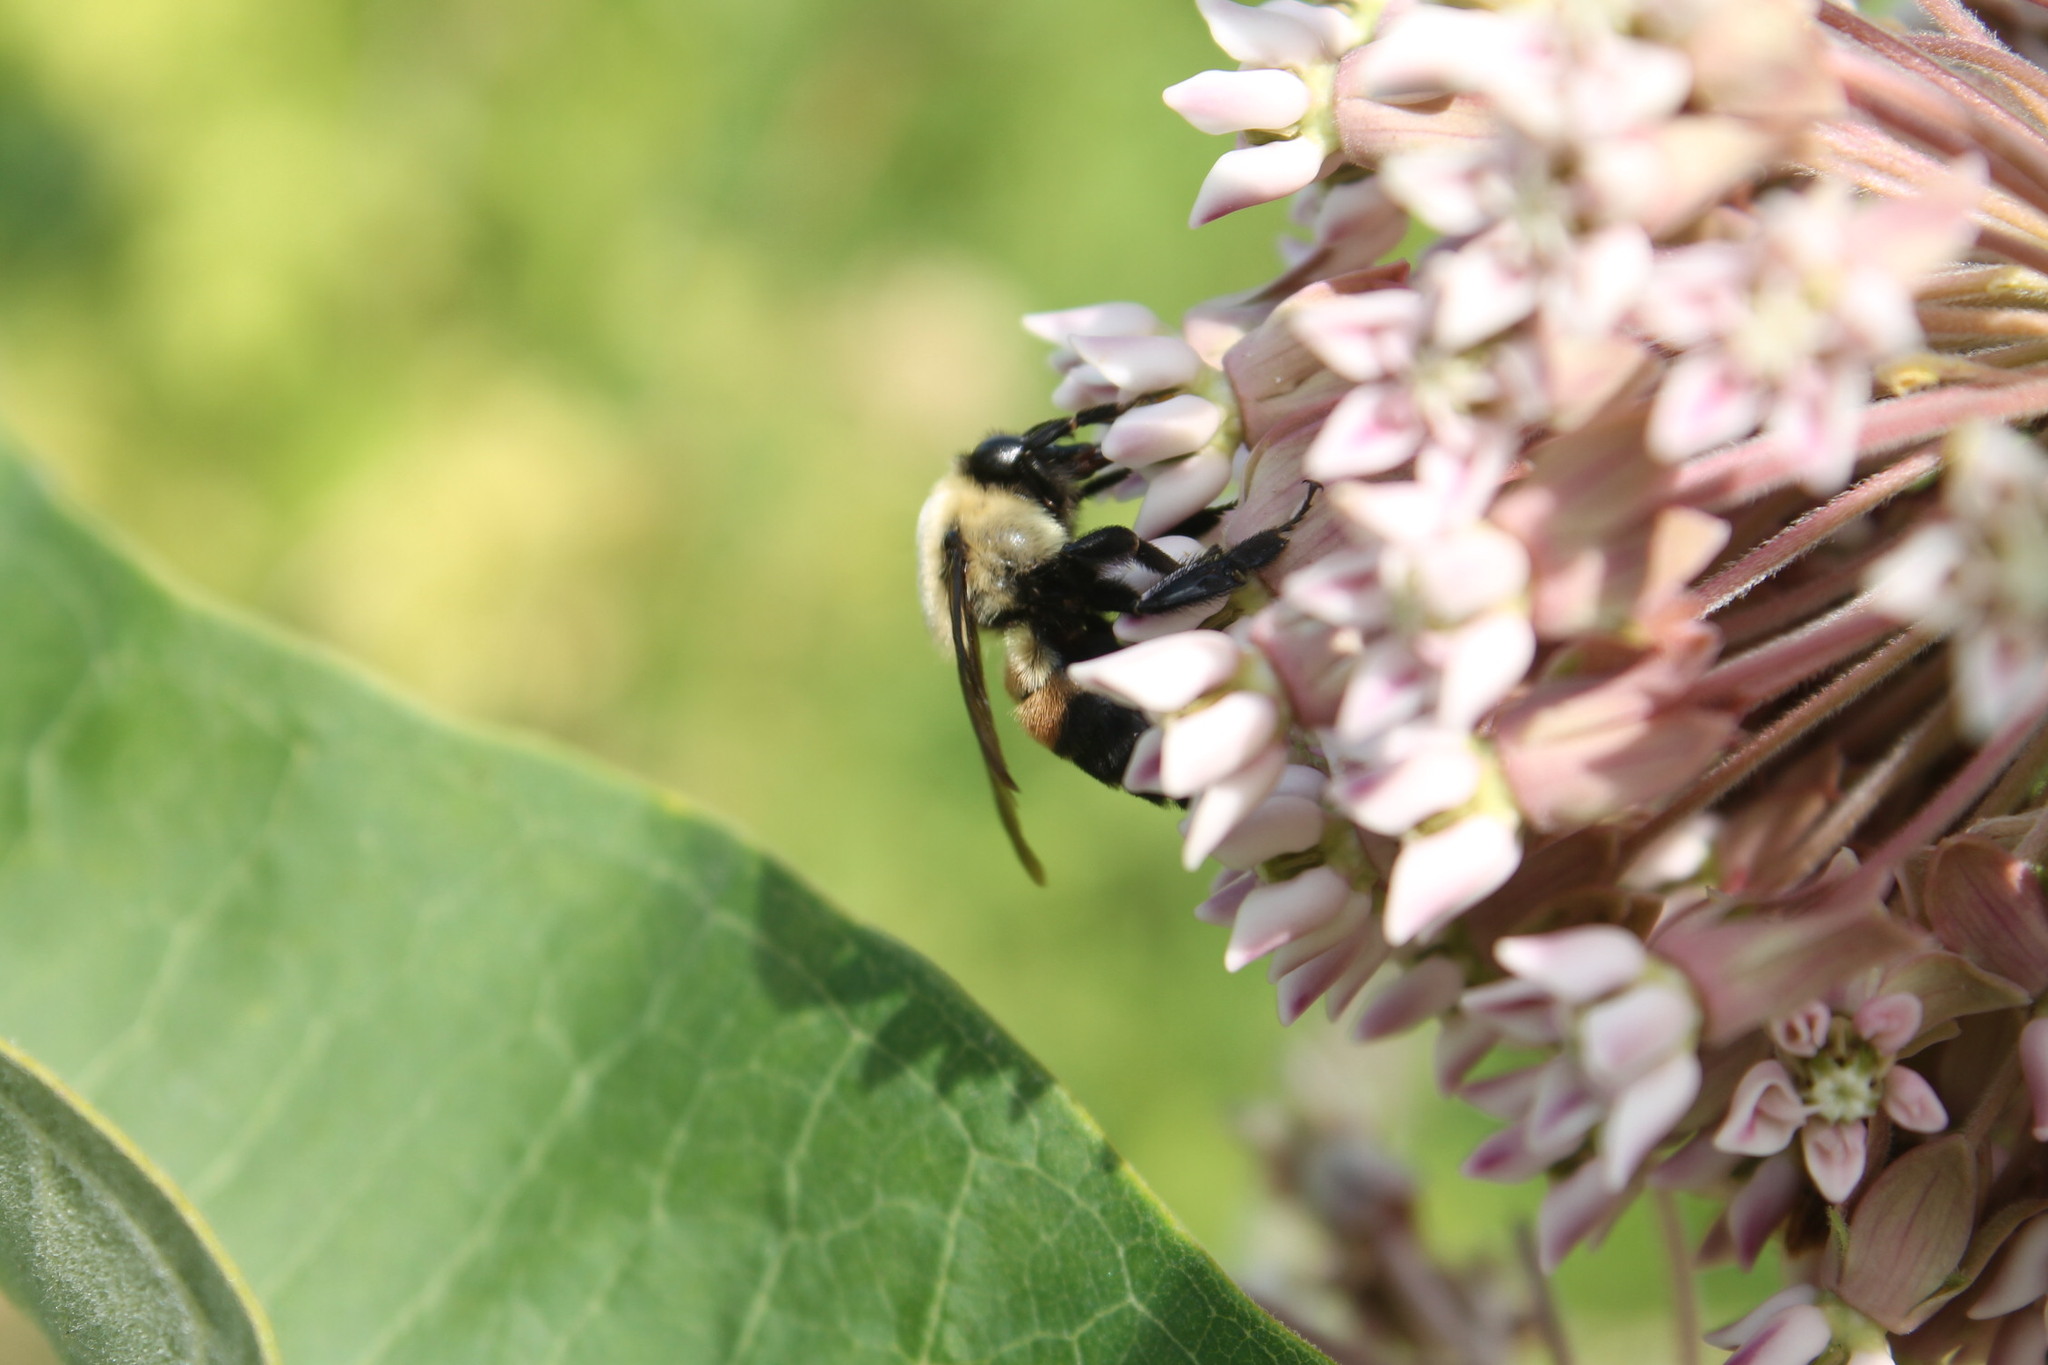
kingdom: Animalia
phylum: Arthropoda
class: Insecta
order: Hymenoptera
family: Apidae
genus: Bombus
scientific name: Bombus griseocollis
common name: Brown-belted bumble bee
